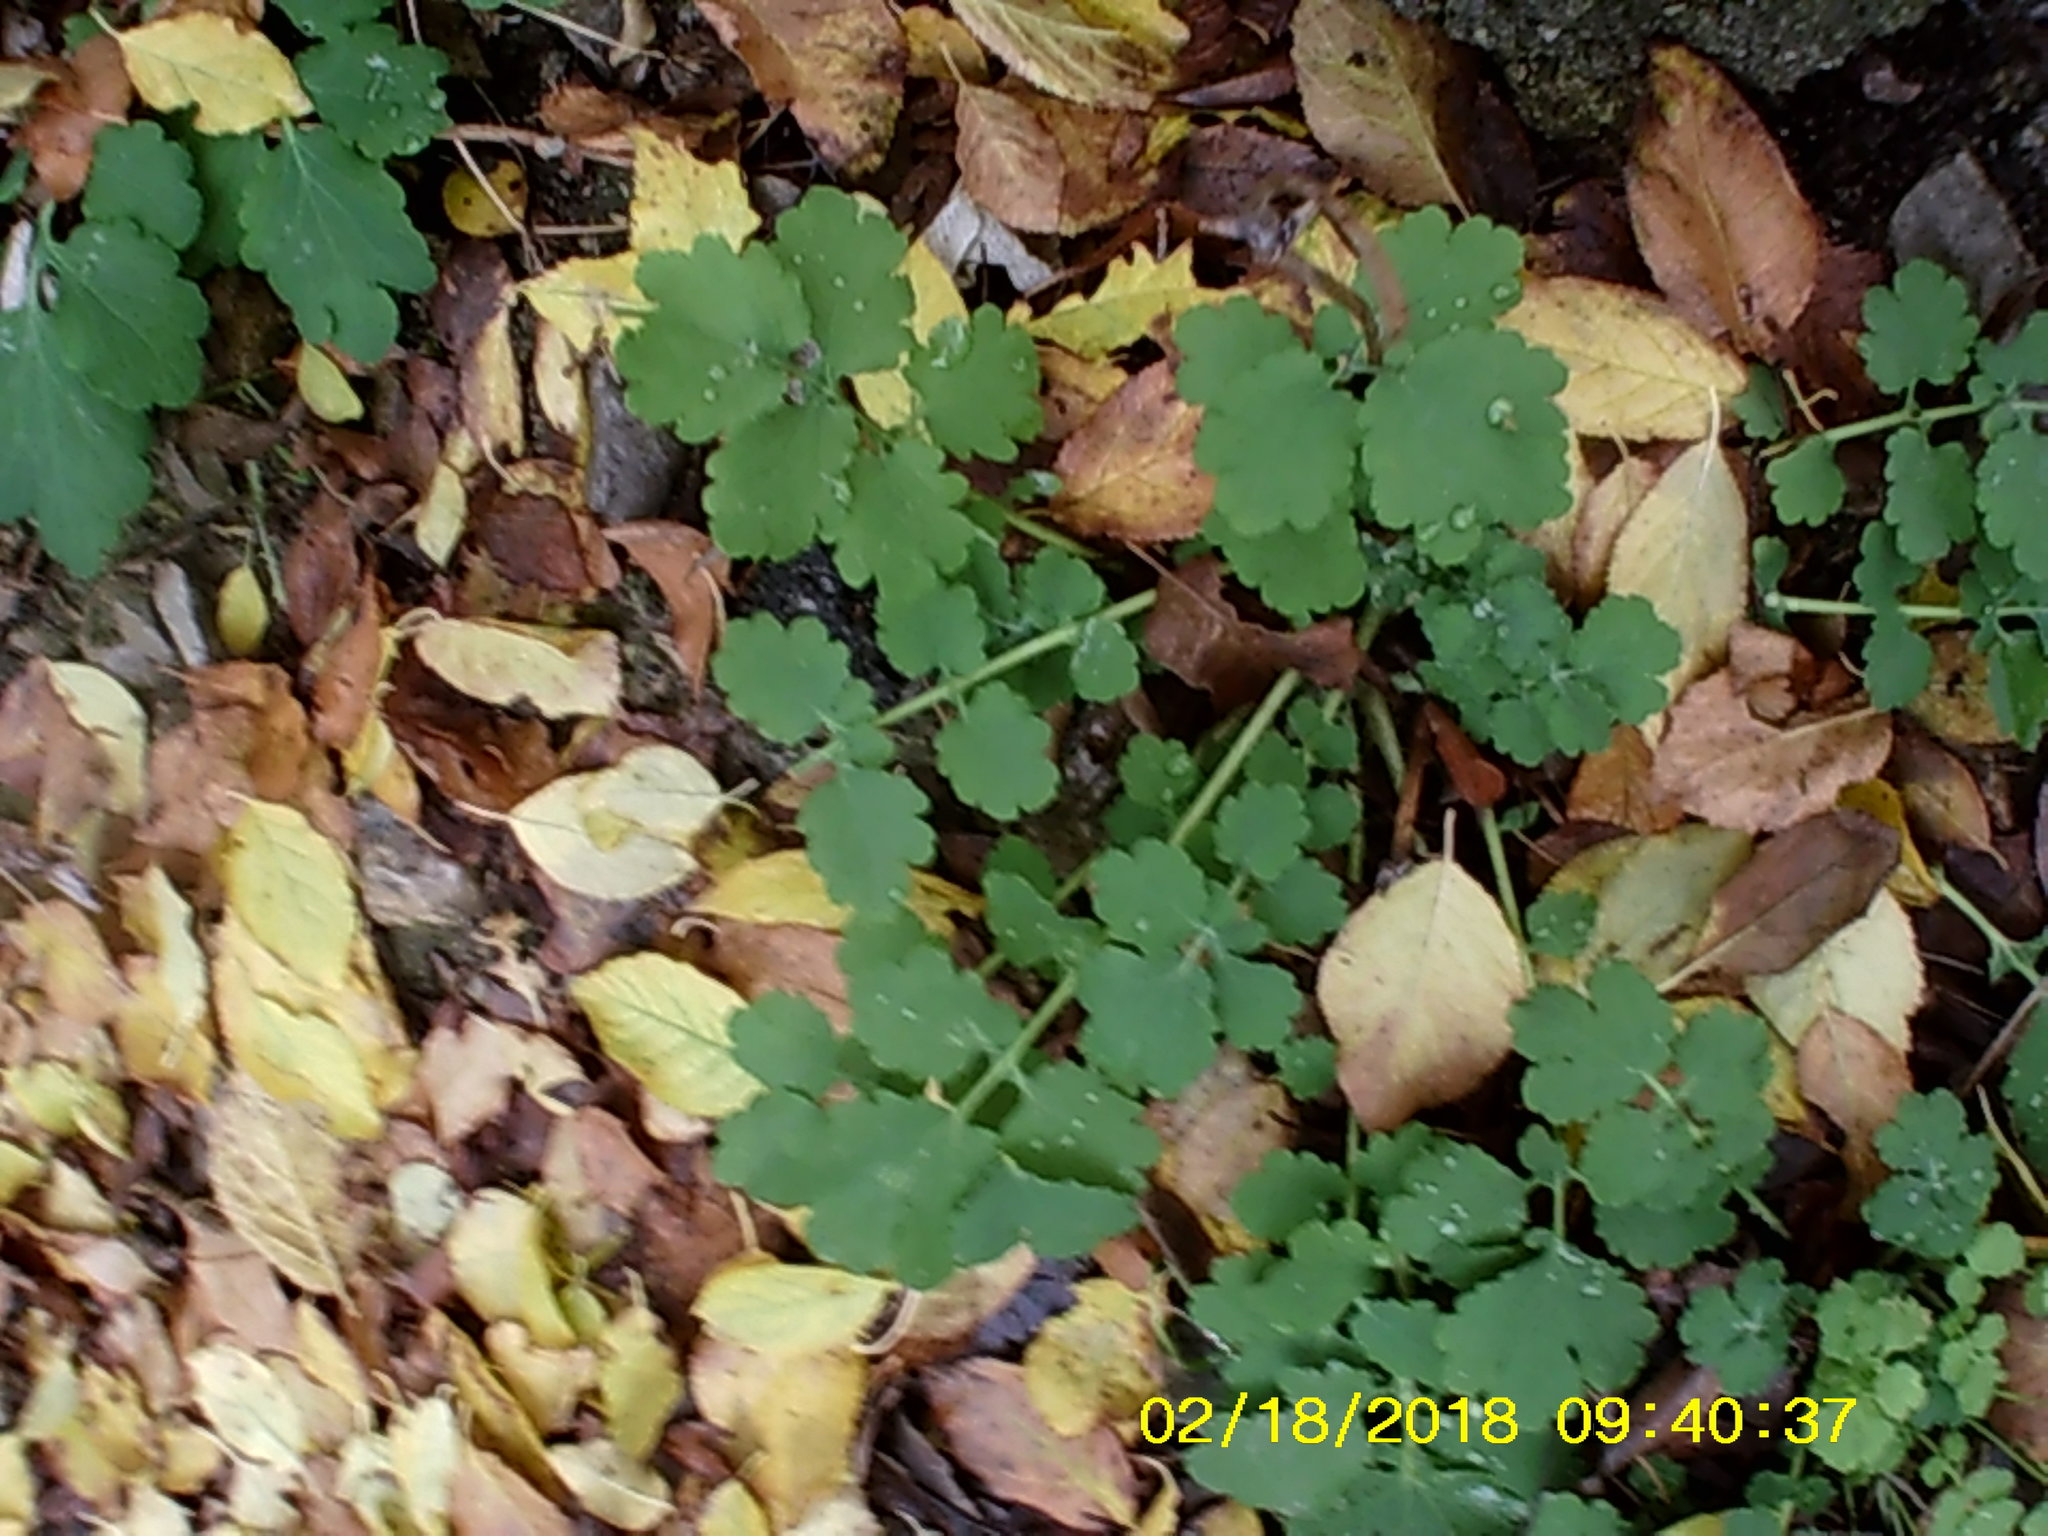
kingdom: Plantae
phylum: Tracheophyta
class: Magnoliopsida
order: Ranunculales
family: Papaveraceae
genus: Chelidonium
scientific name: Chelidonium majus
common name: Greater celandine
